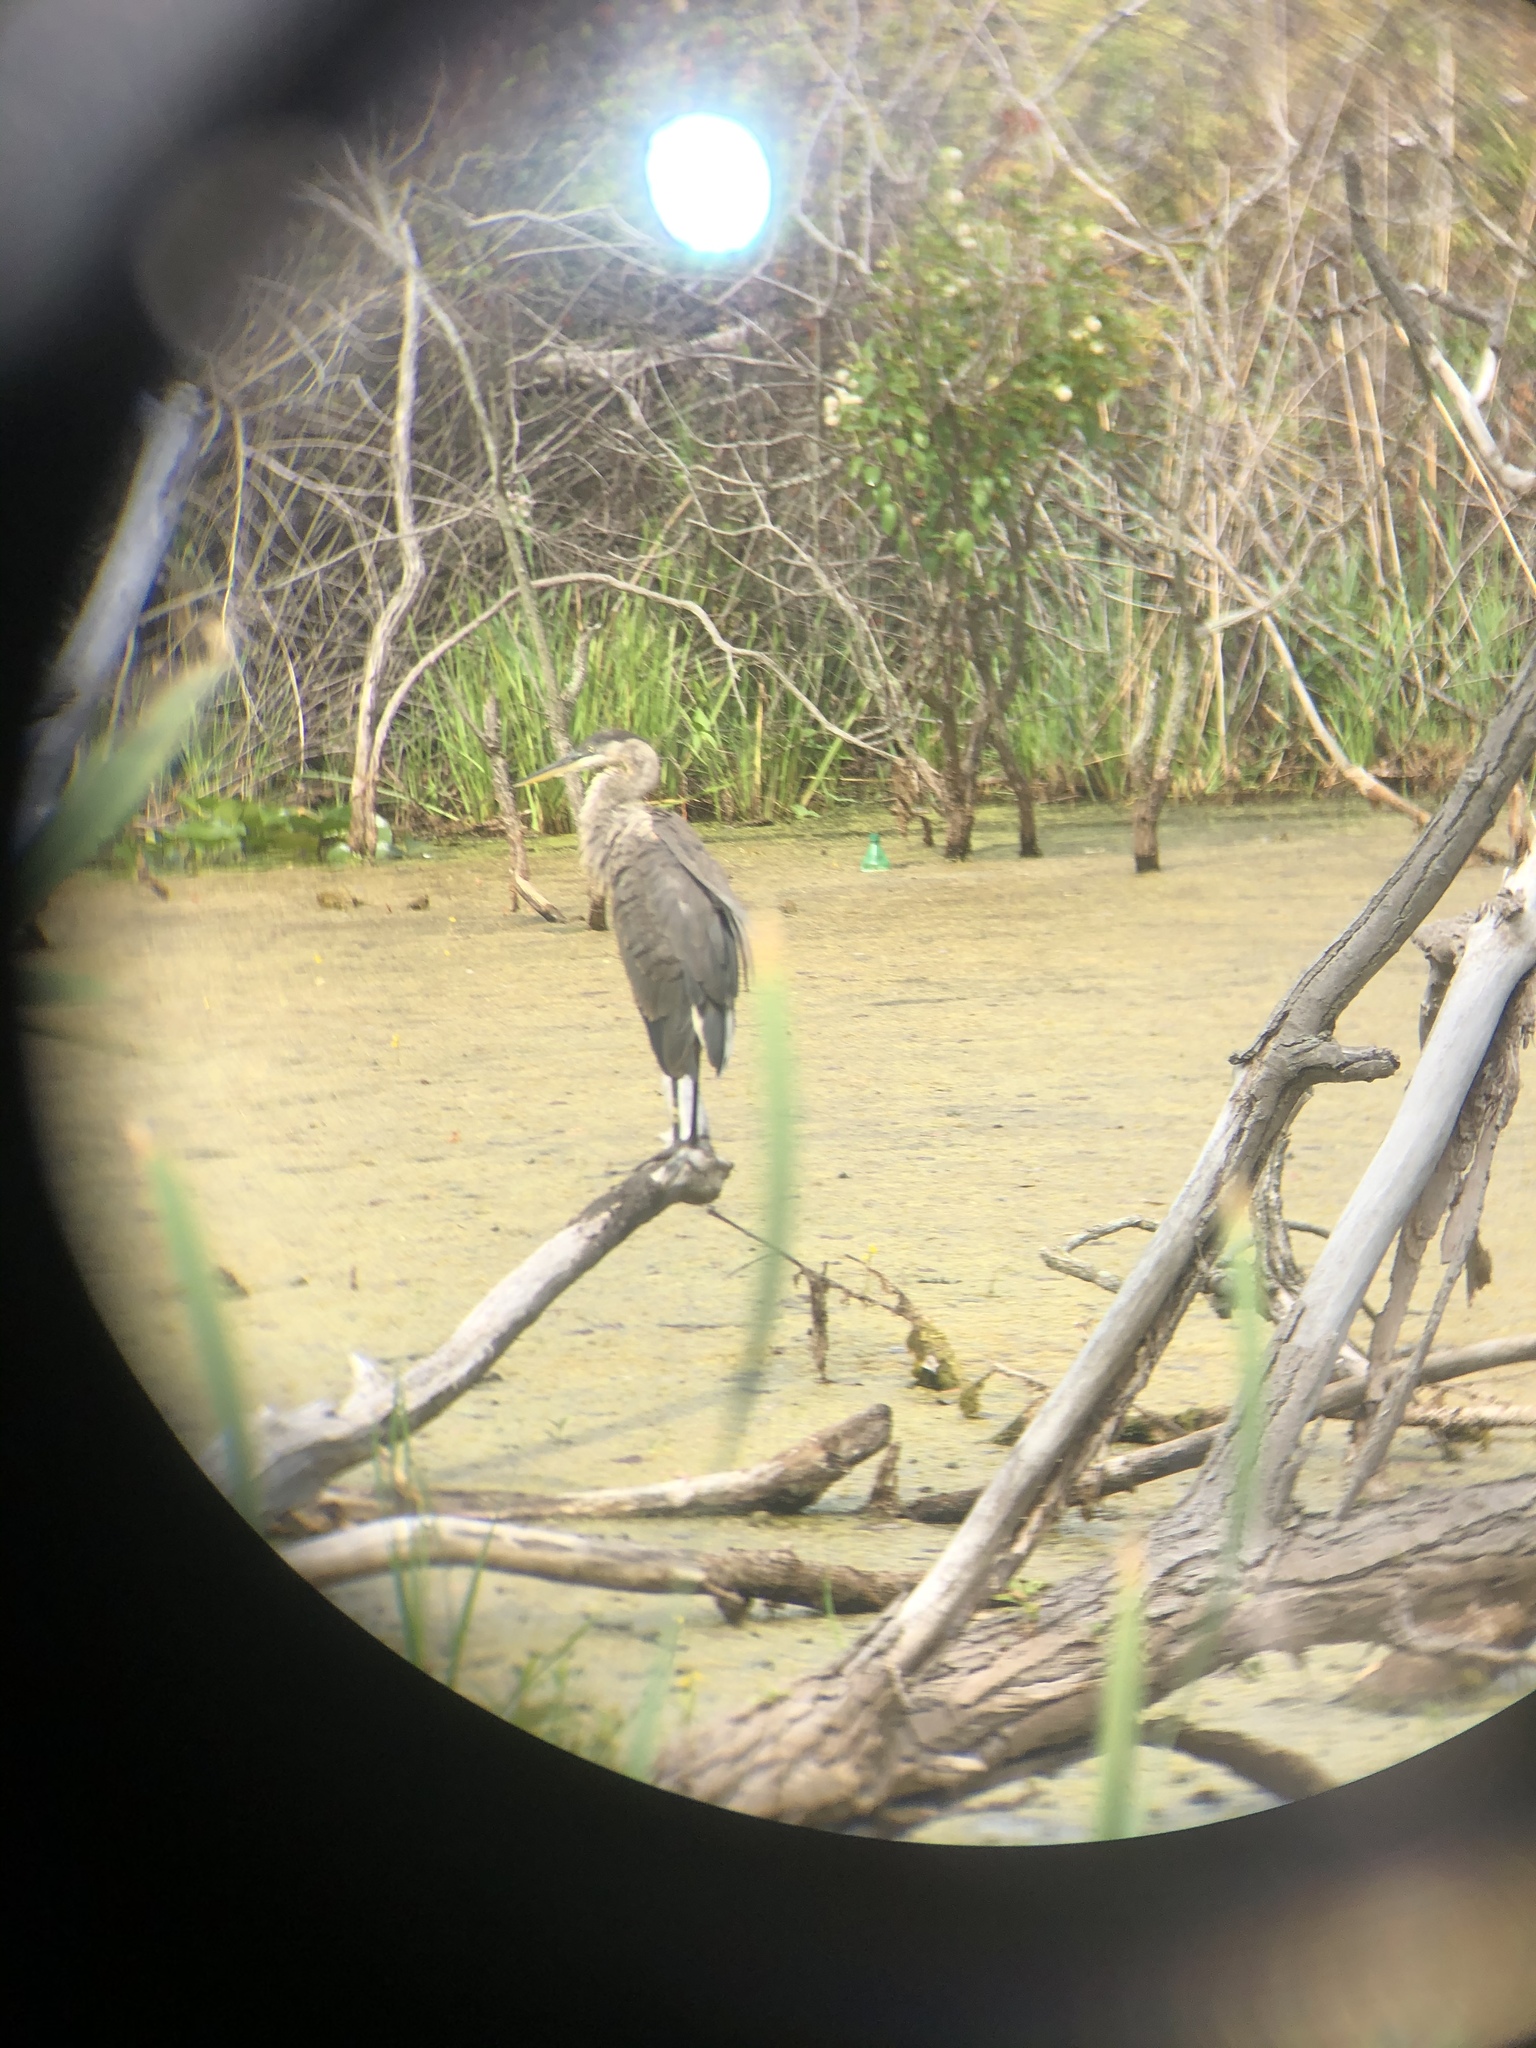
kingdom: Animalia
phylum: Chordata
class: Aves
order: Pelecaniformes
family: Ardeidae
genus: Ardea
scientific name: Ardea herodias
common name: Great blue heron
